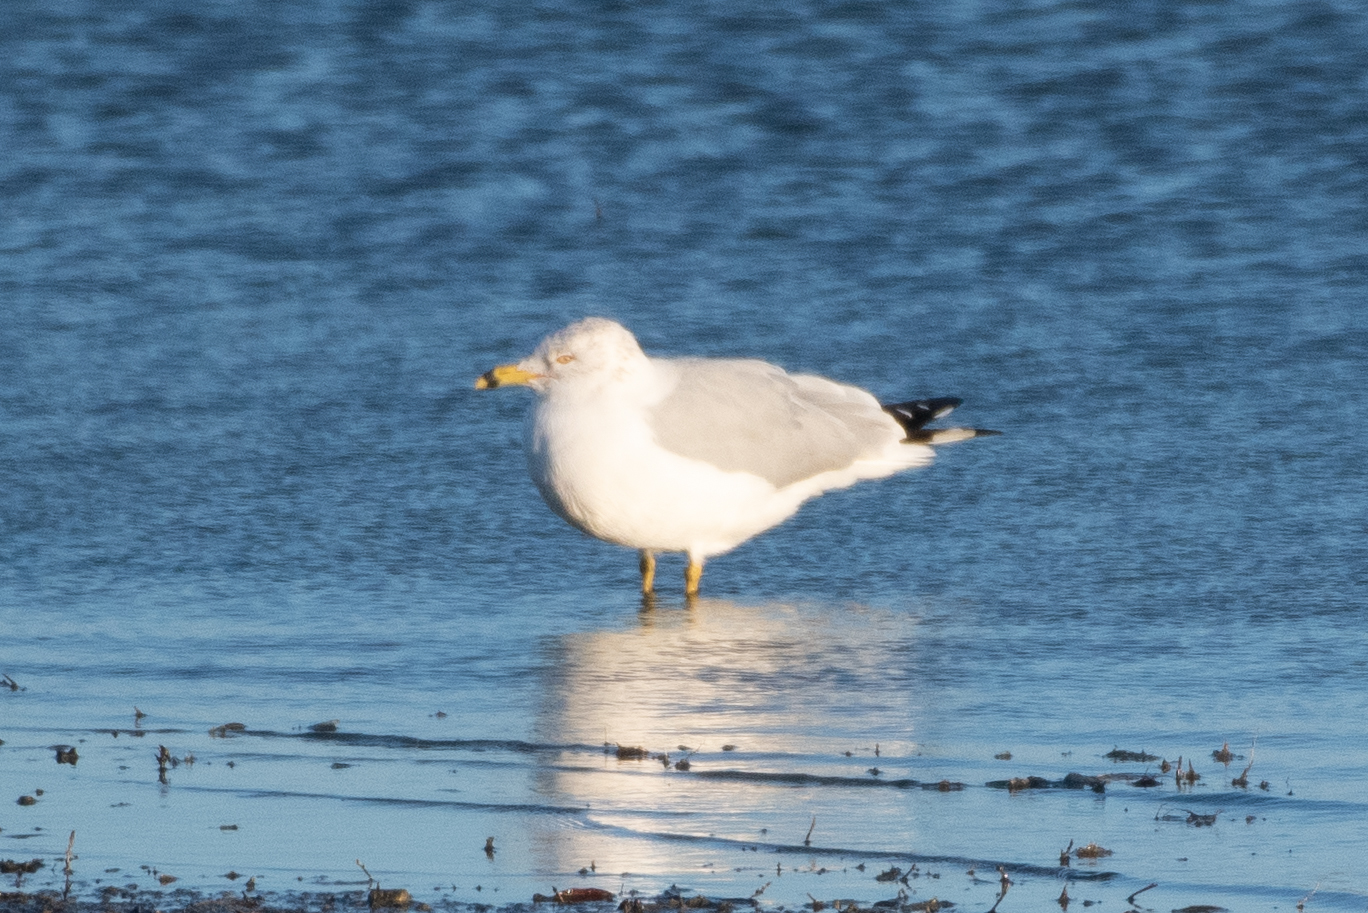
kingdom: Animalia
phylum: Chordata
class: Aves
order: Charadriiformes
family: Laridae
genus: Larus
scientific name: Larus delawarensis
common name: Ring-billed gull
